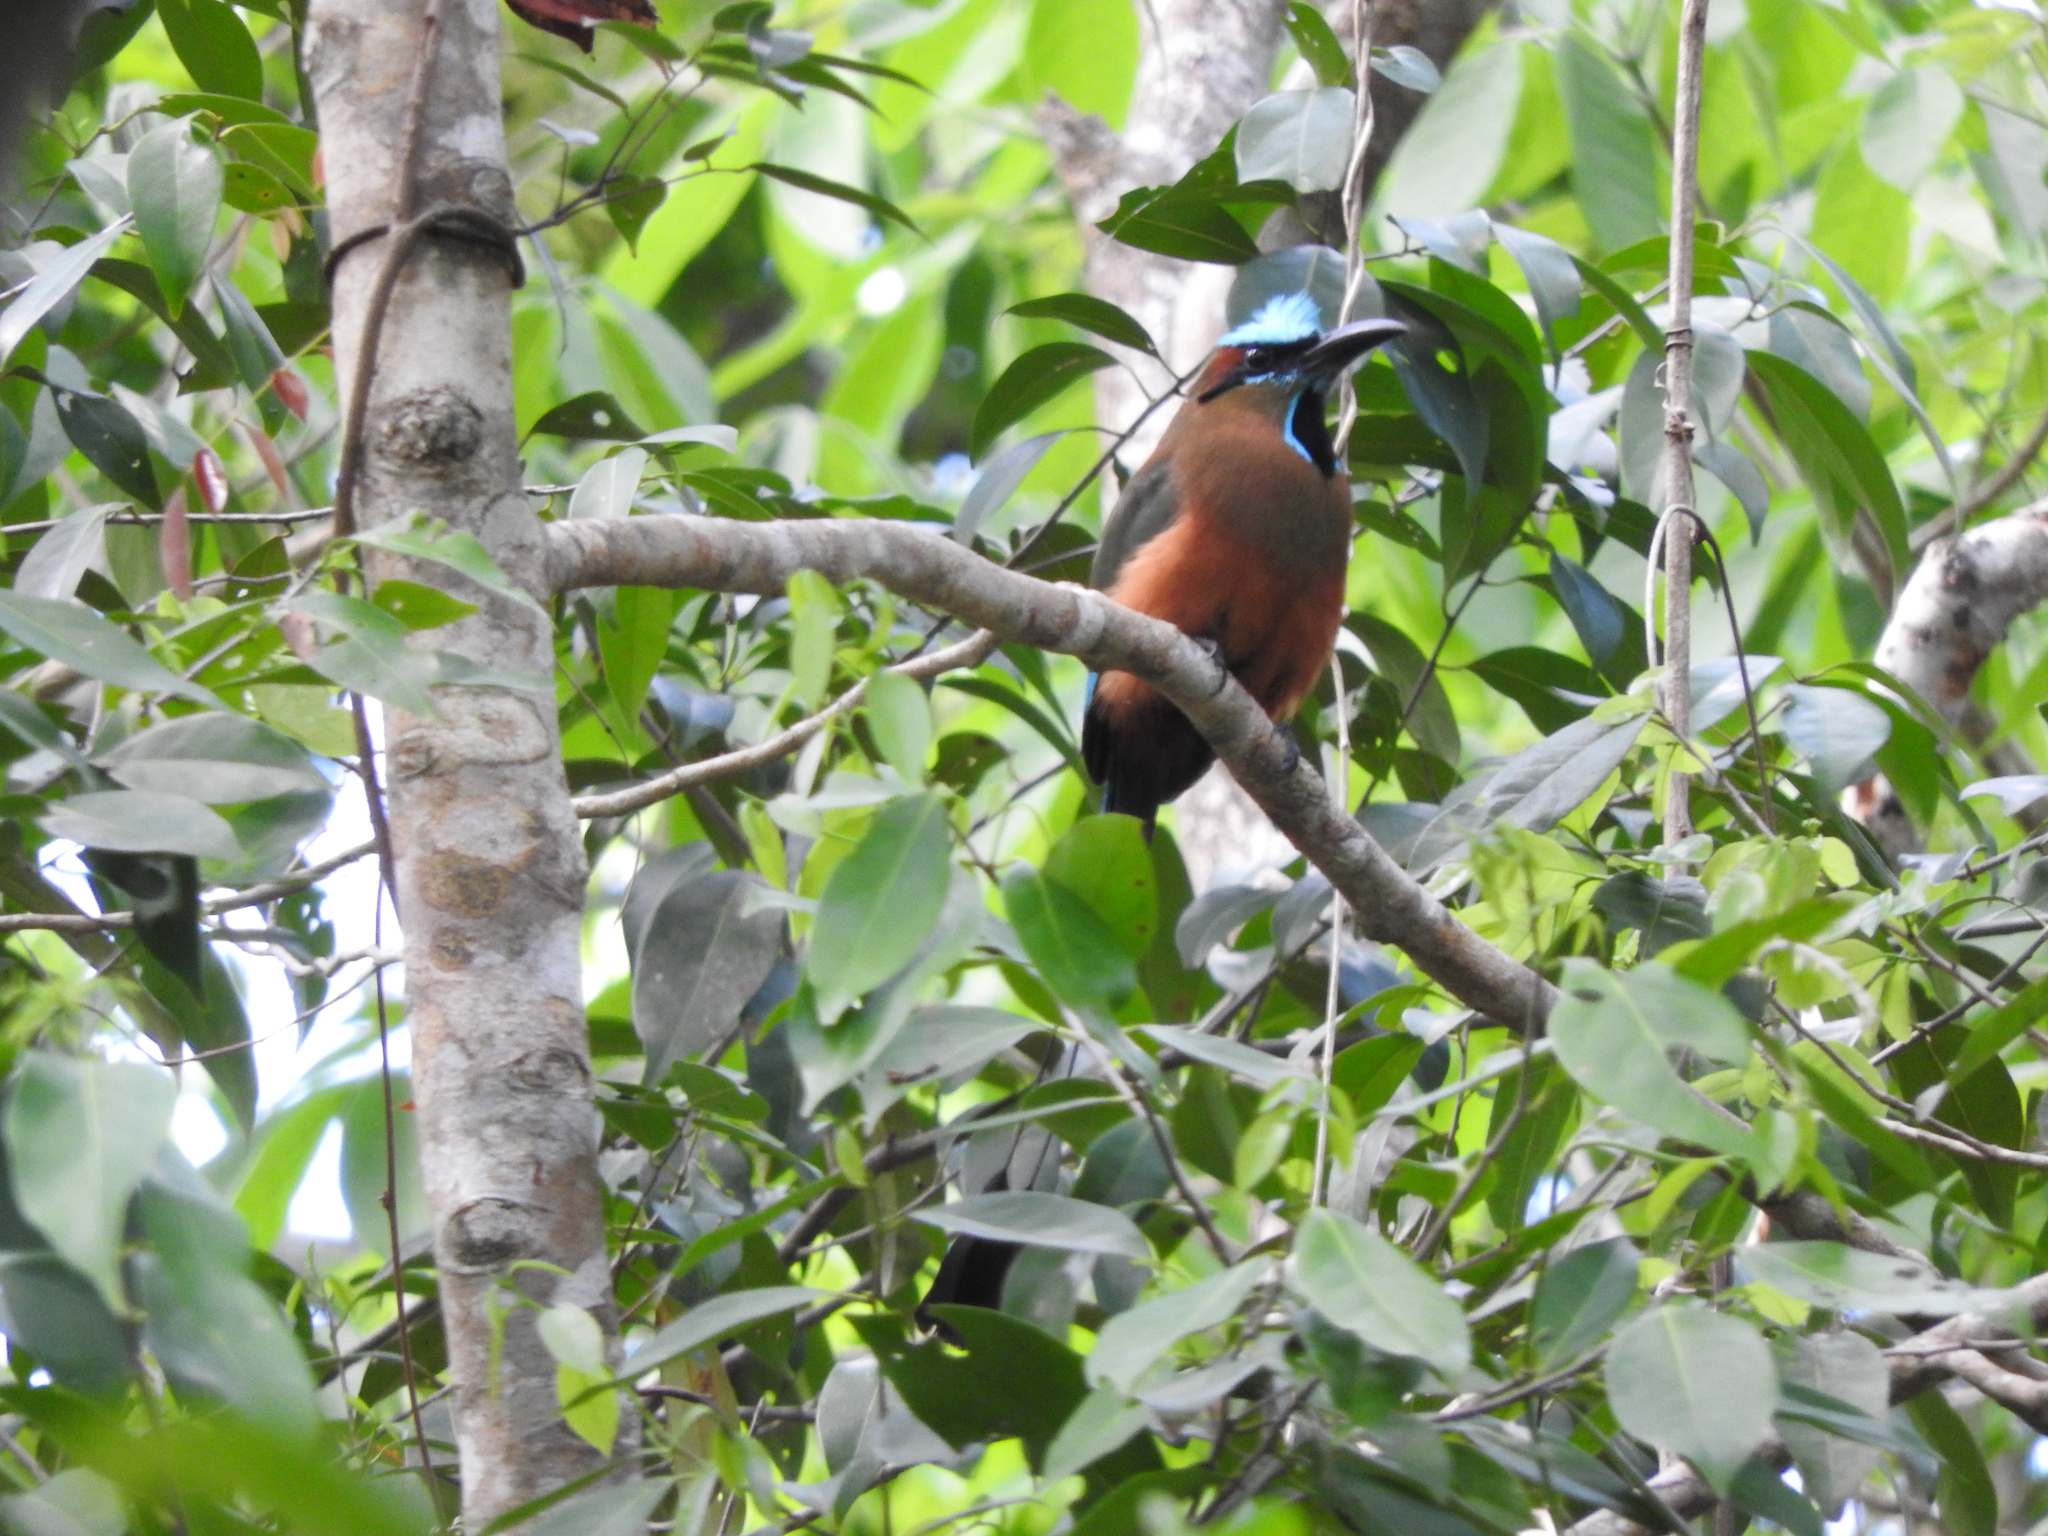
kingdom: Animalia
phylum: Chordata
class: Aves
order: Coraciiformes
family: Momotidae
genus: Eumomota
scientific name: Eumomota superciliosa
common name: Turquoise-browed motmot
